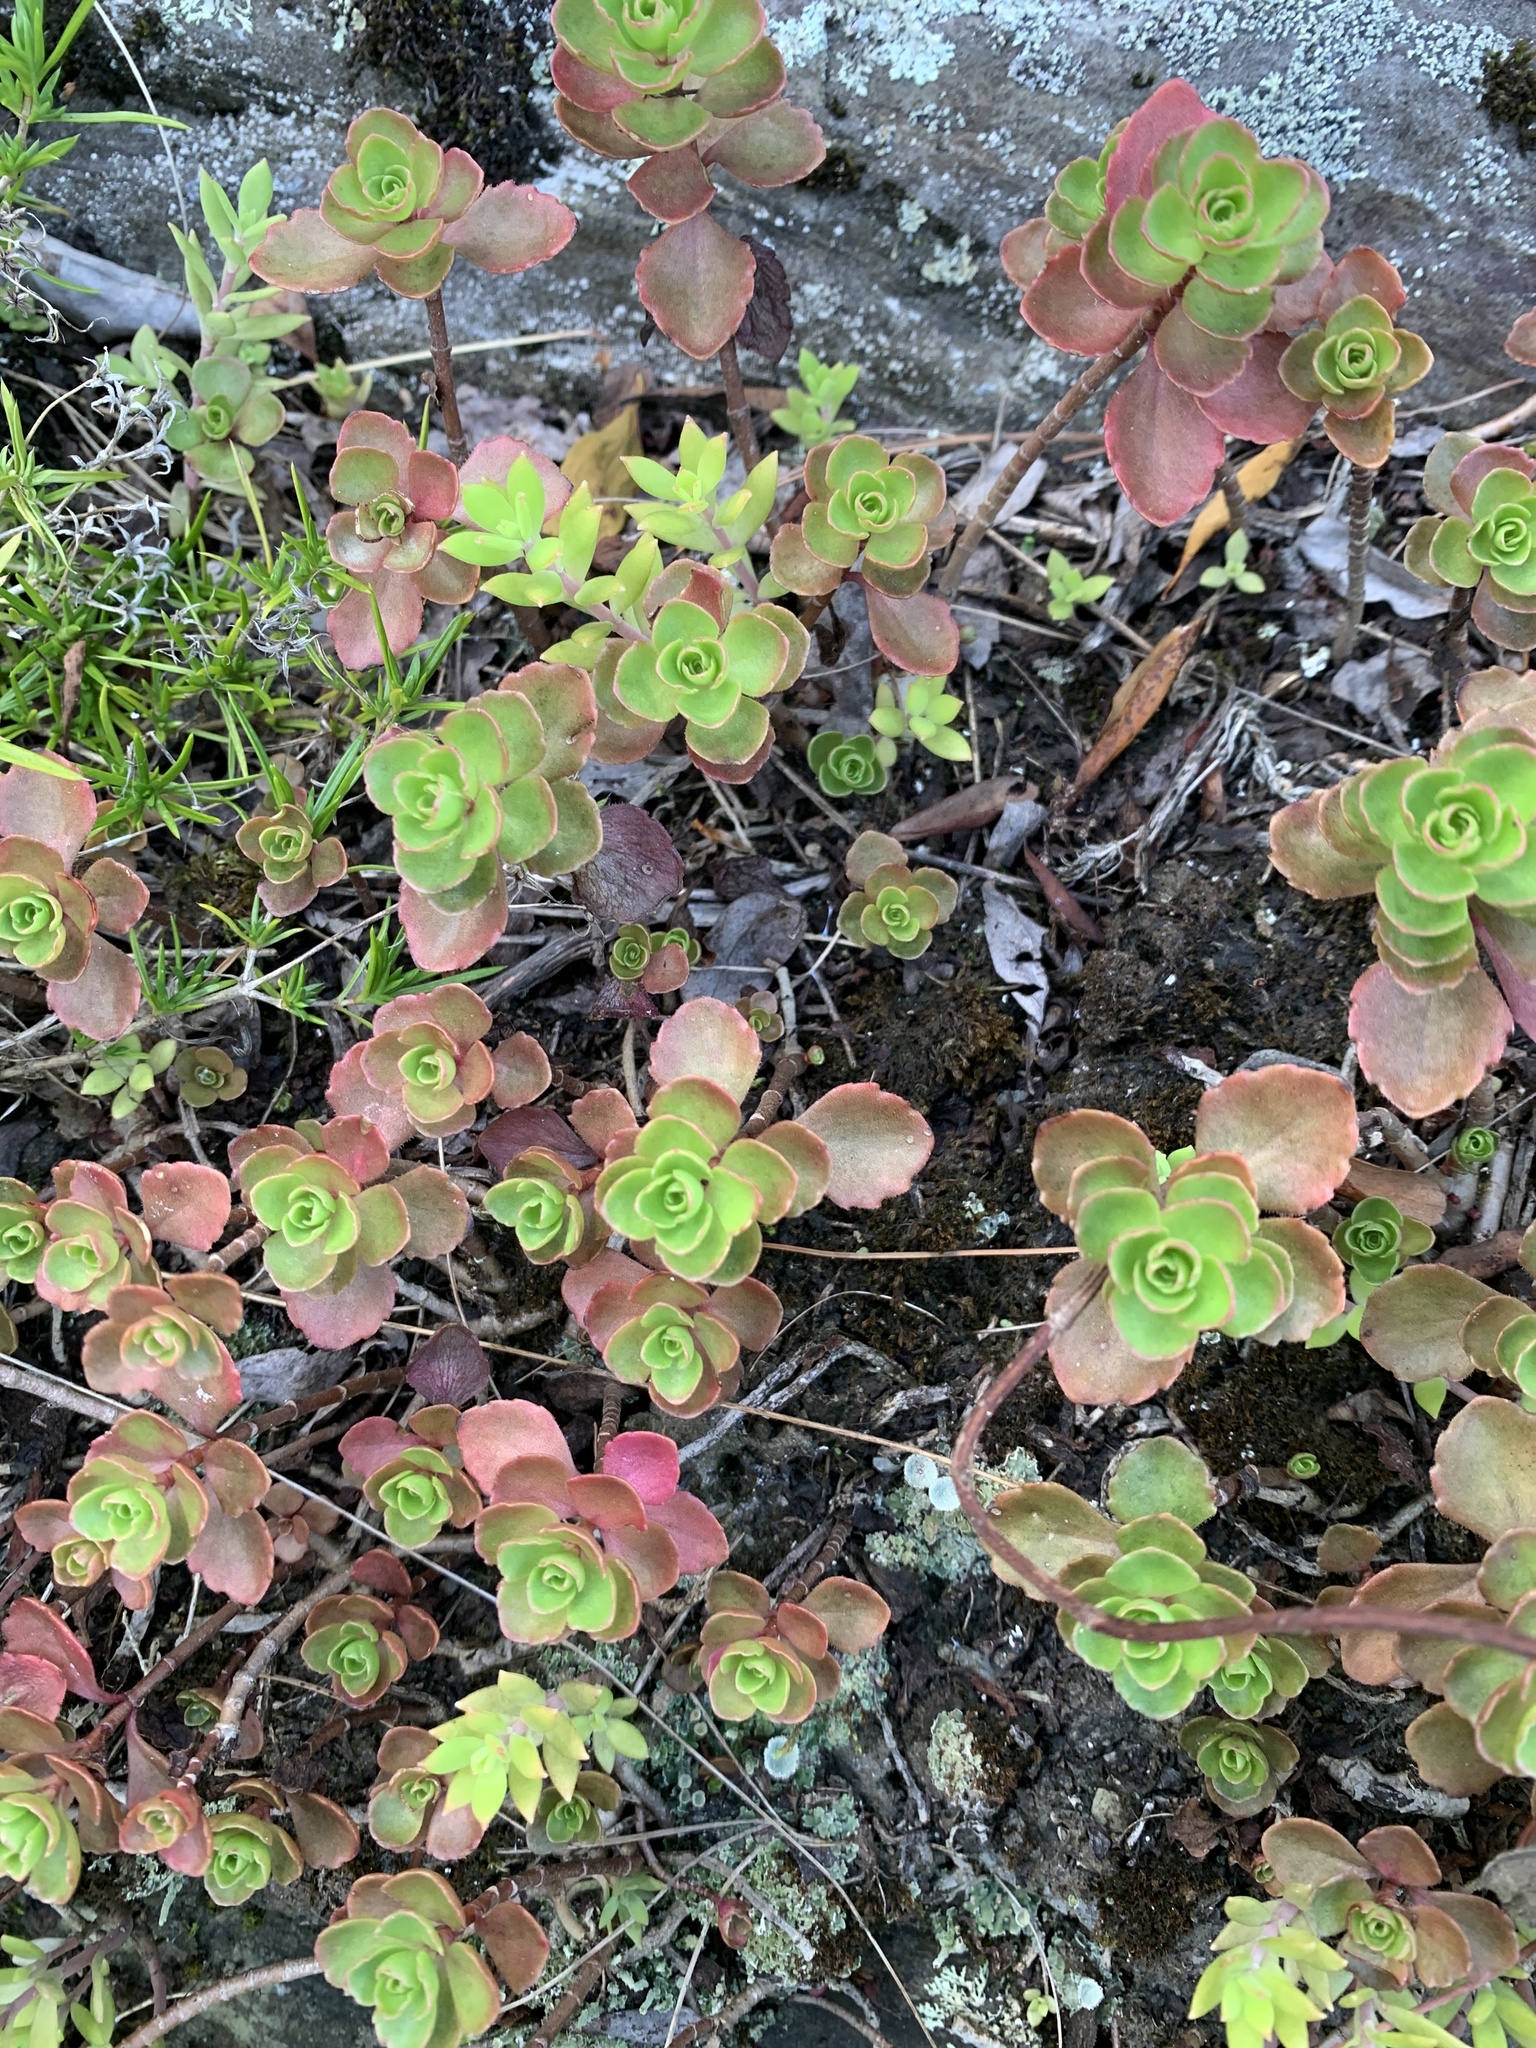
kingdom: Plantae
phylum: Tracheophyta
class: Magnoliopsida
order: Saxifragales
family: Crassulaceae
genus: Phedimus
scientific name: Phedimus spurius
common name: Caucasian stonecrop
